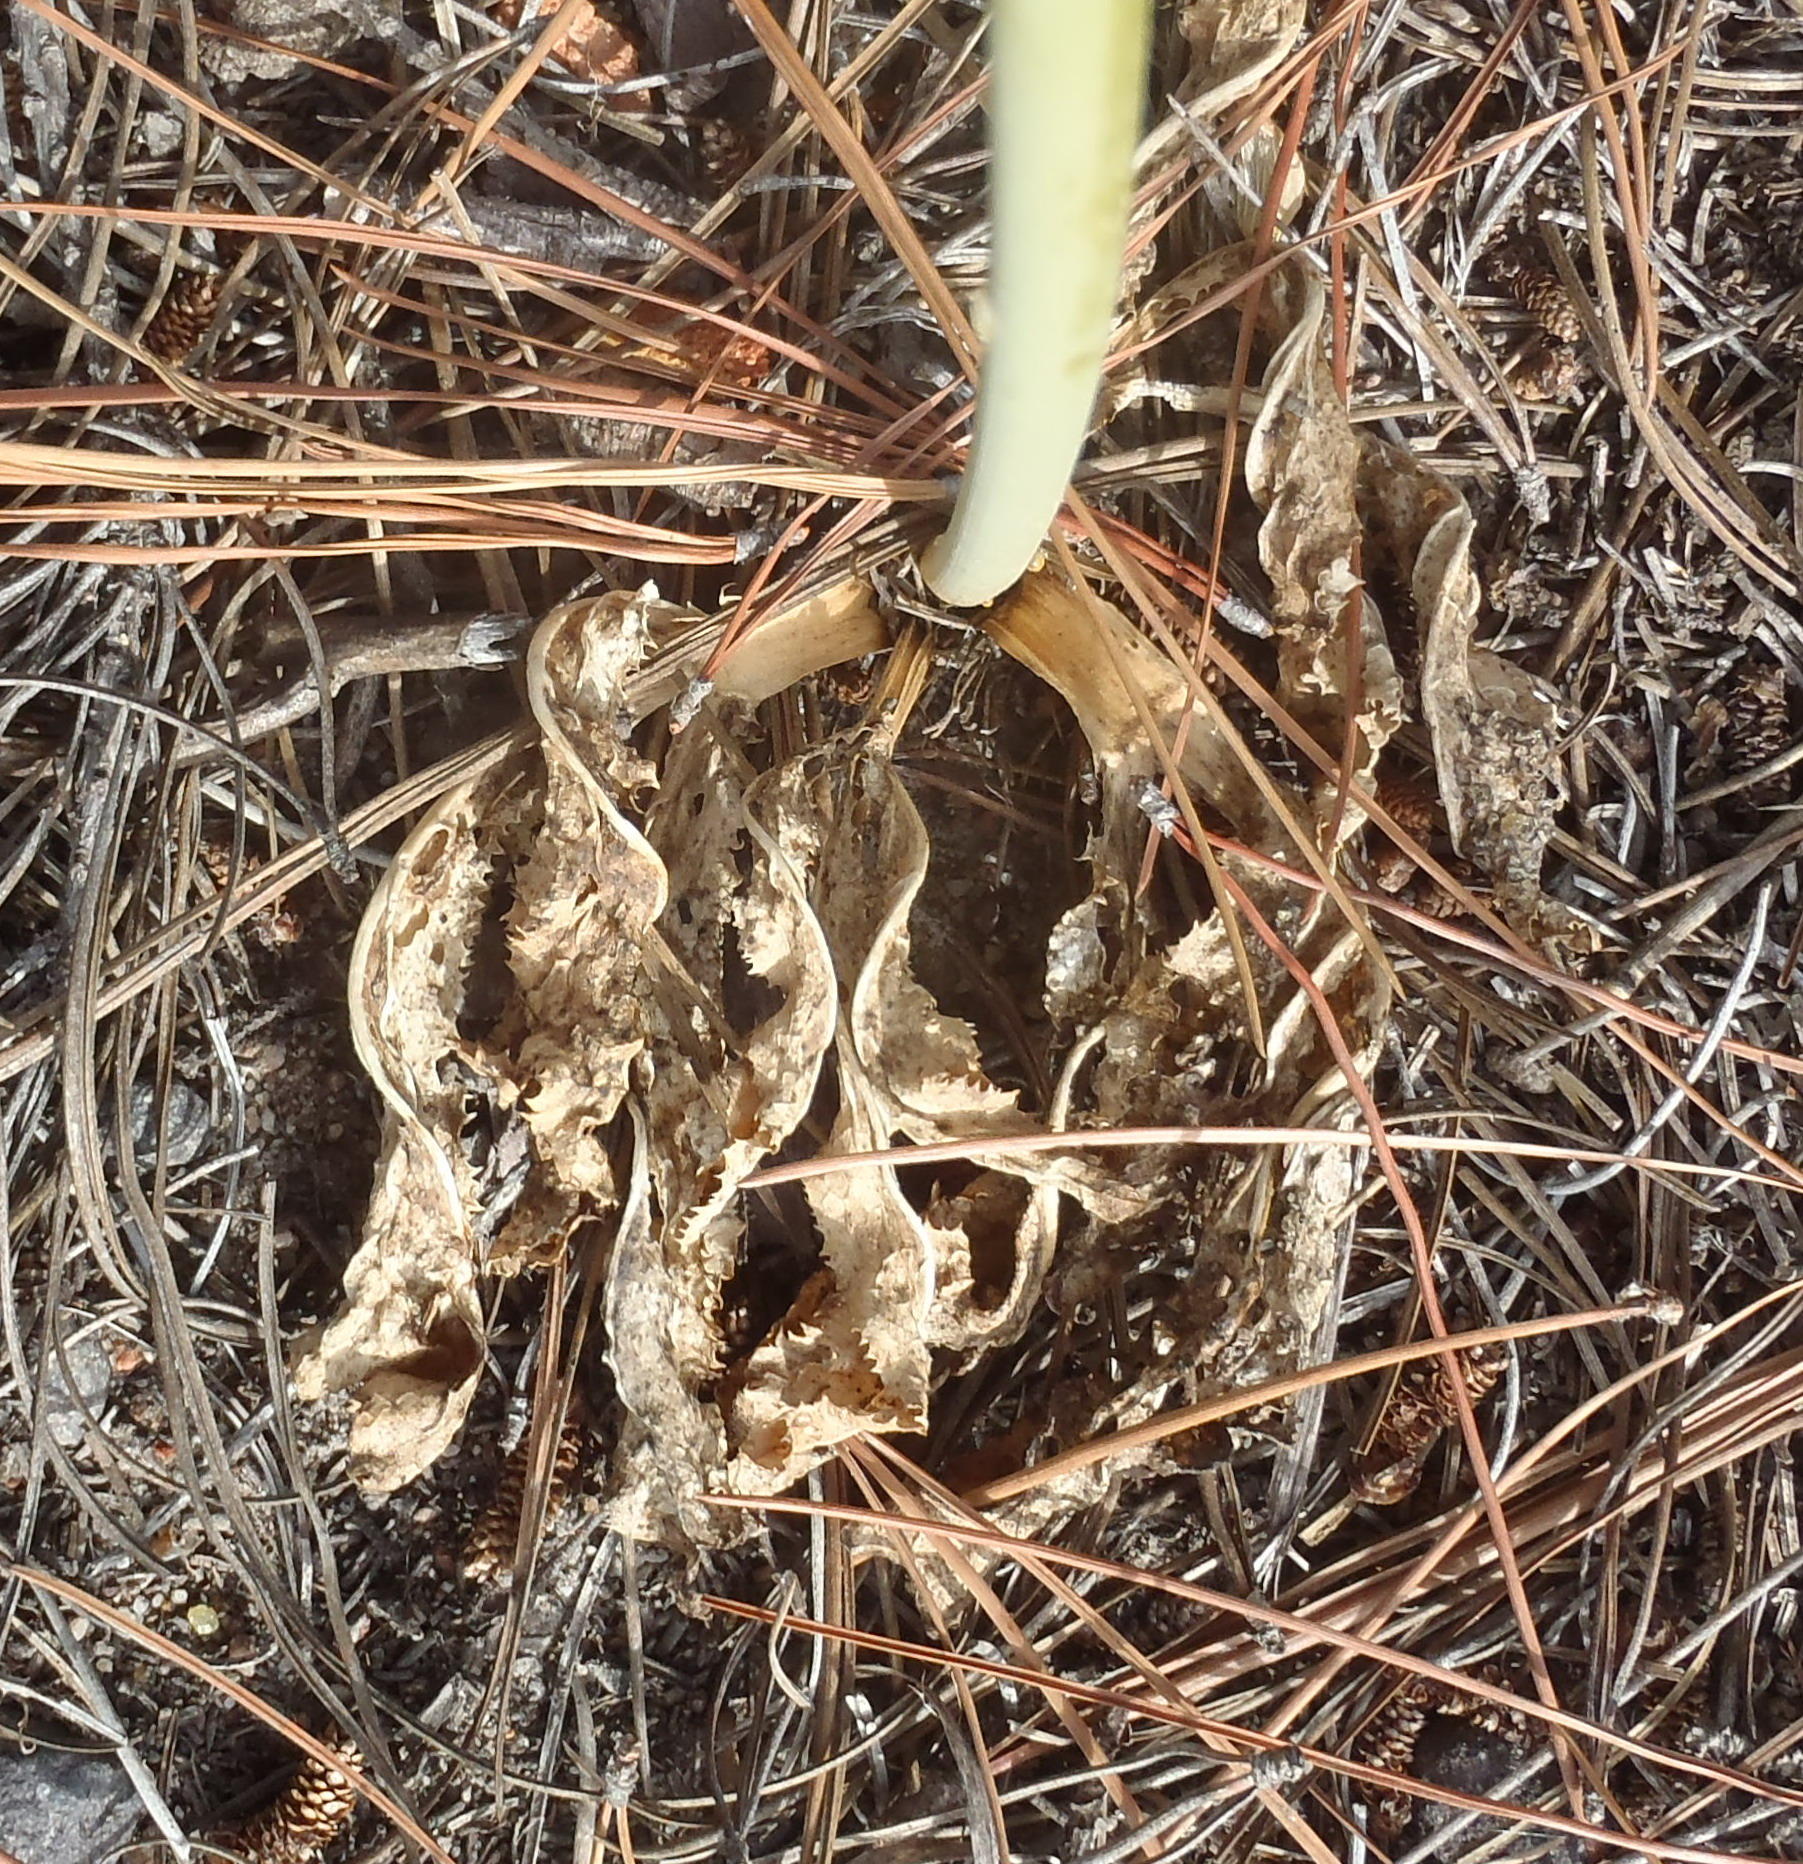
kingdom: Plantae
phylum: Tracheophyta
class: Magnoliopsida
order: Apiales
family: Apiaceae
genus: Lichtensteinia
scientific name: Lichtensteinia trifida
